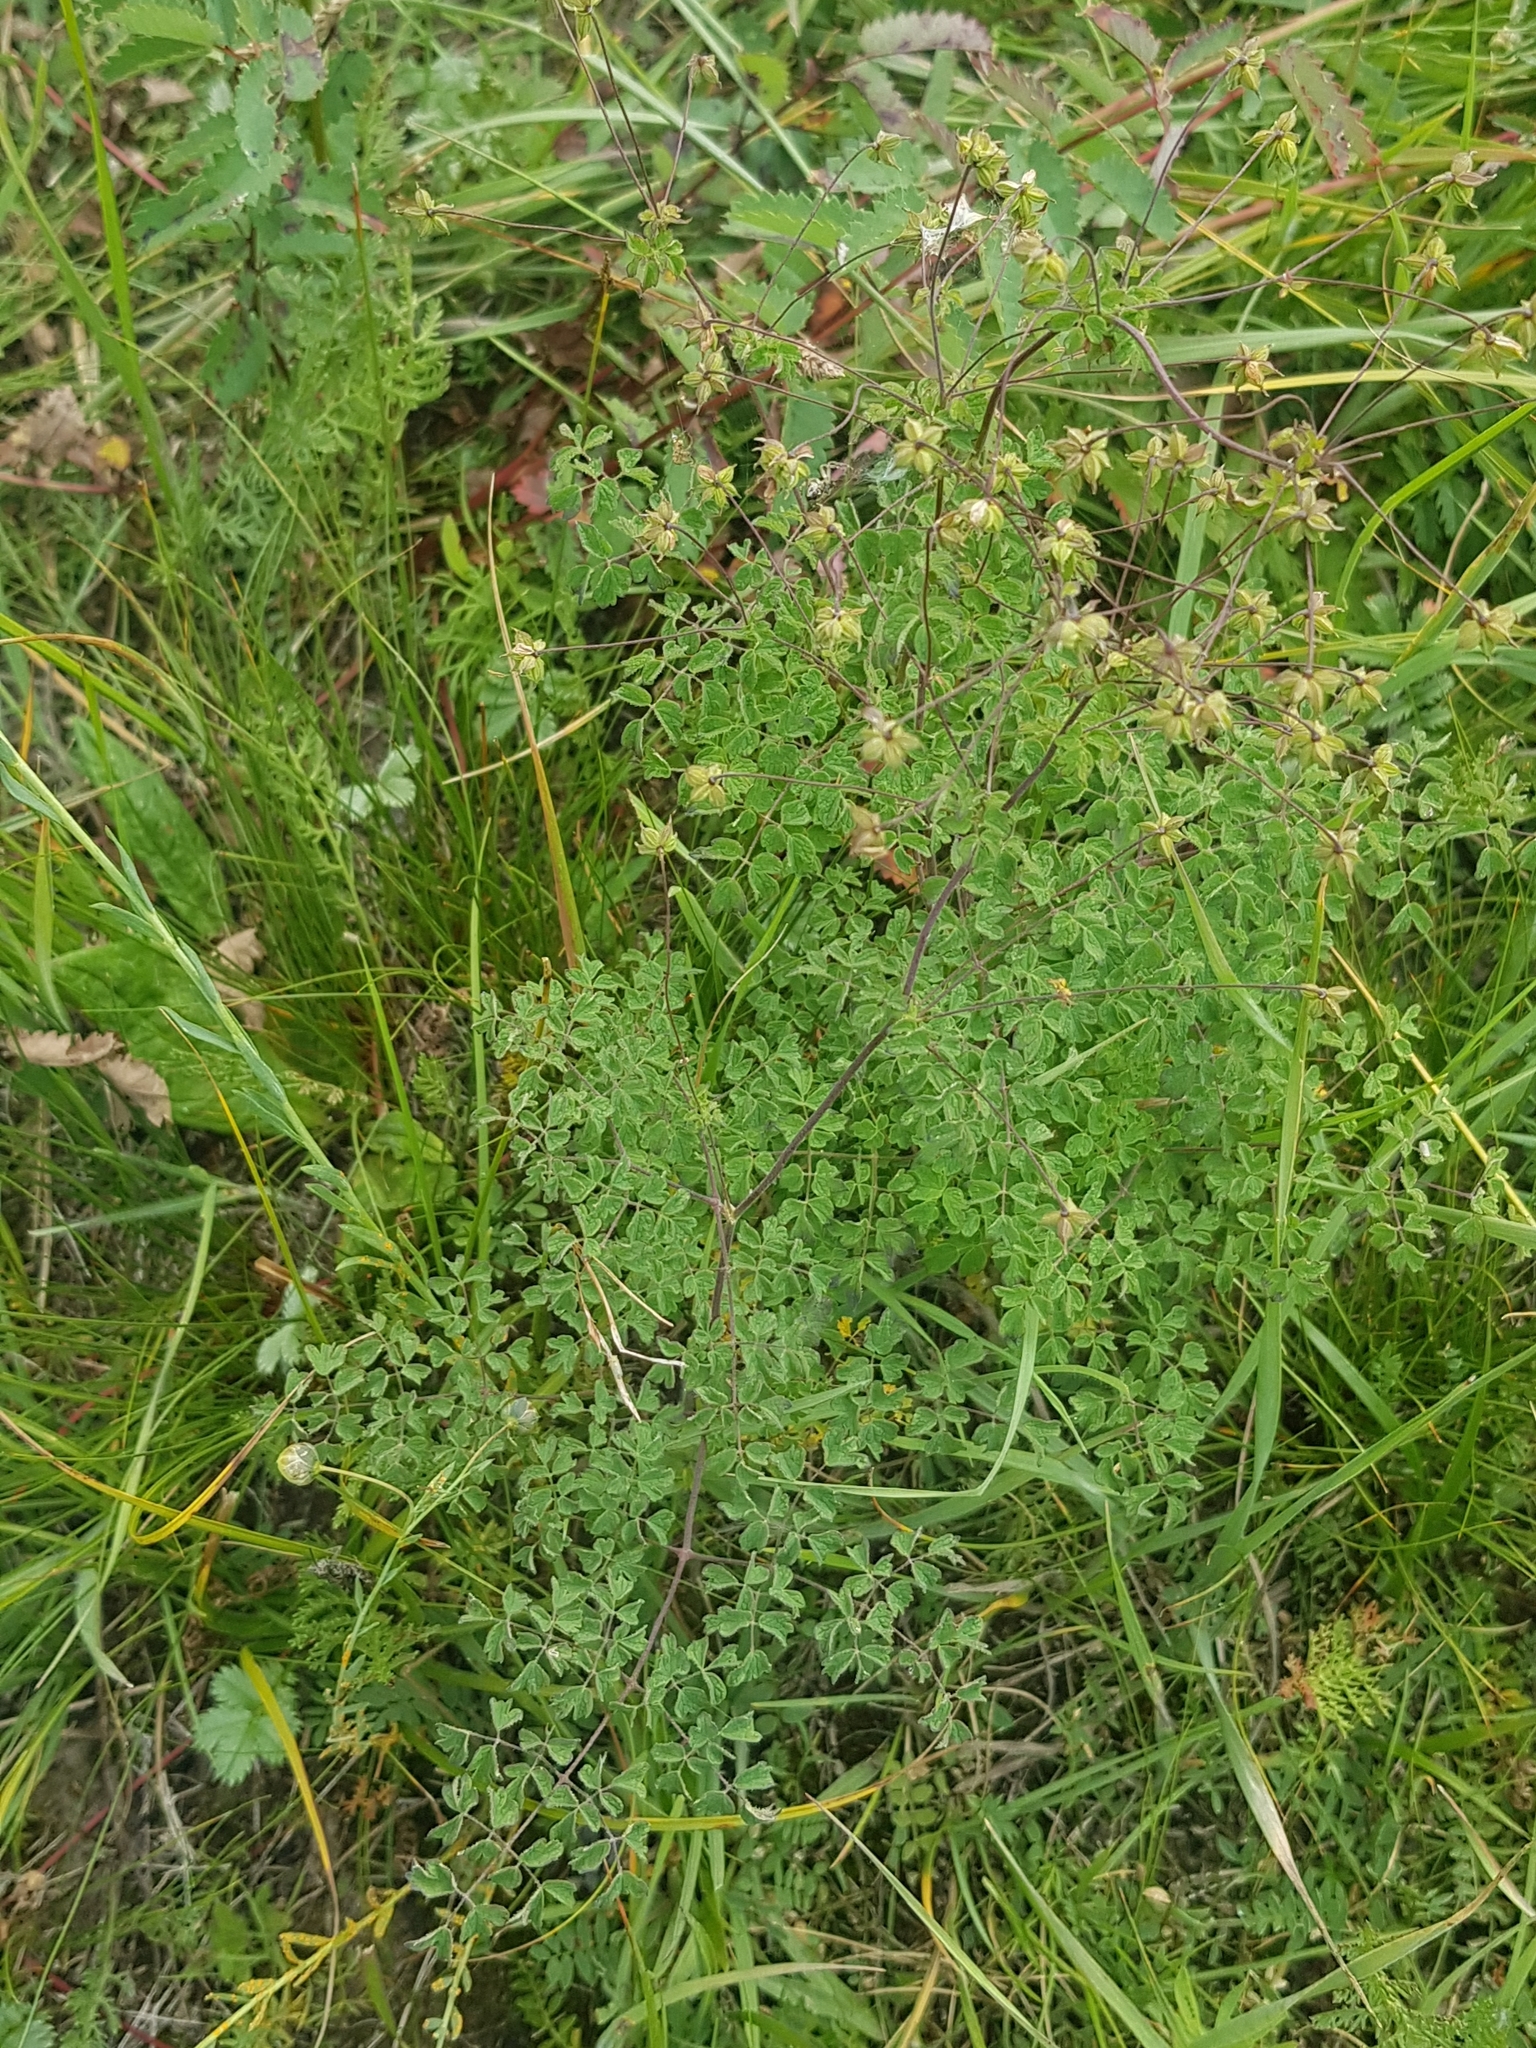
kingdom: Plantae
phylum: Tracheophyta
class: Magnoliopsida
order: Ranunculales
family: Ranunculaceae
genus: Thalictrum
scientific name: Thalictrum foetidum
